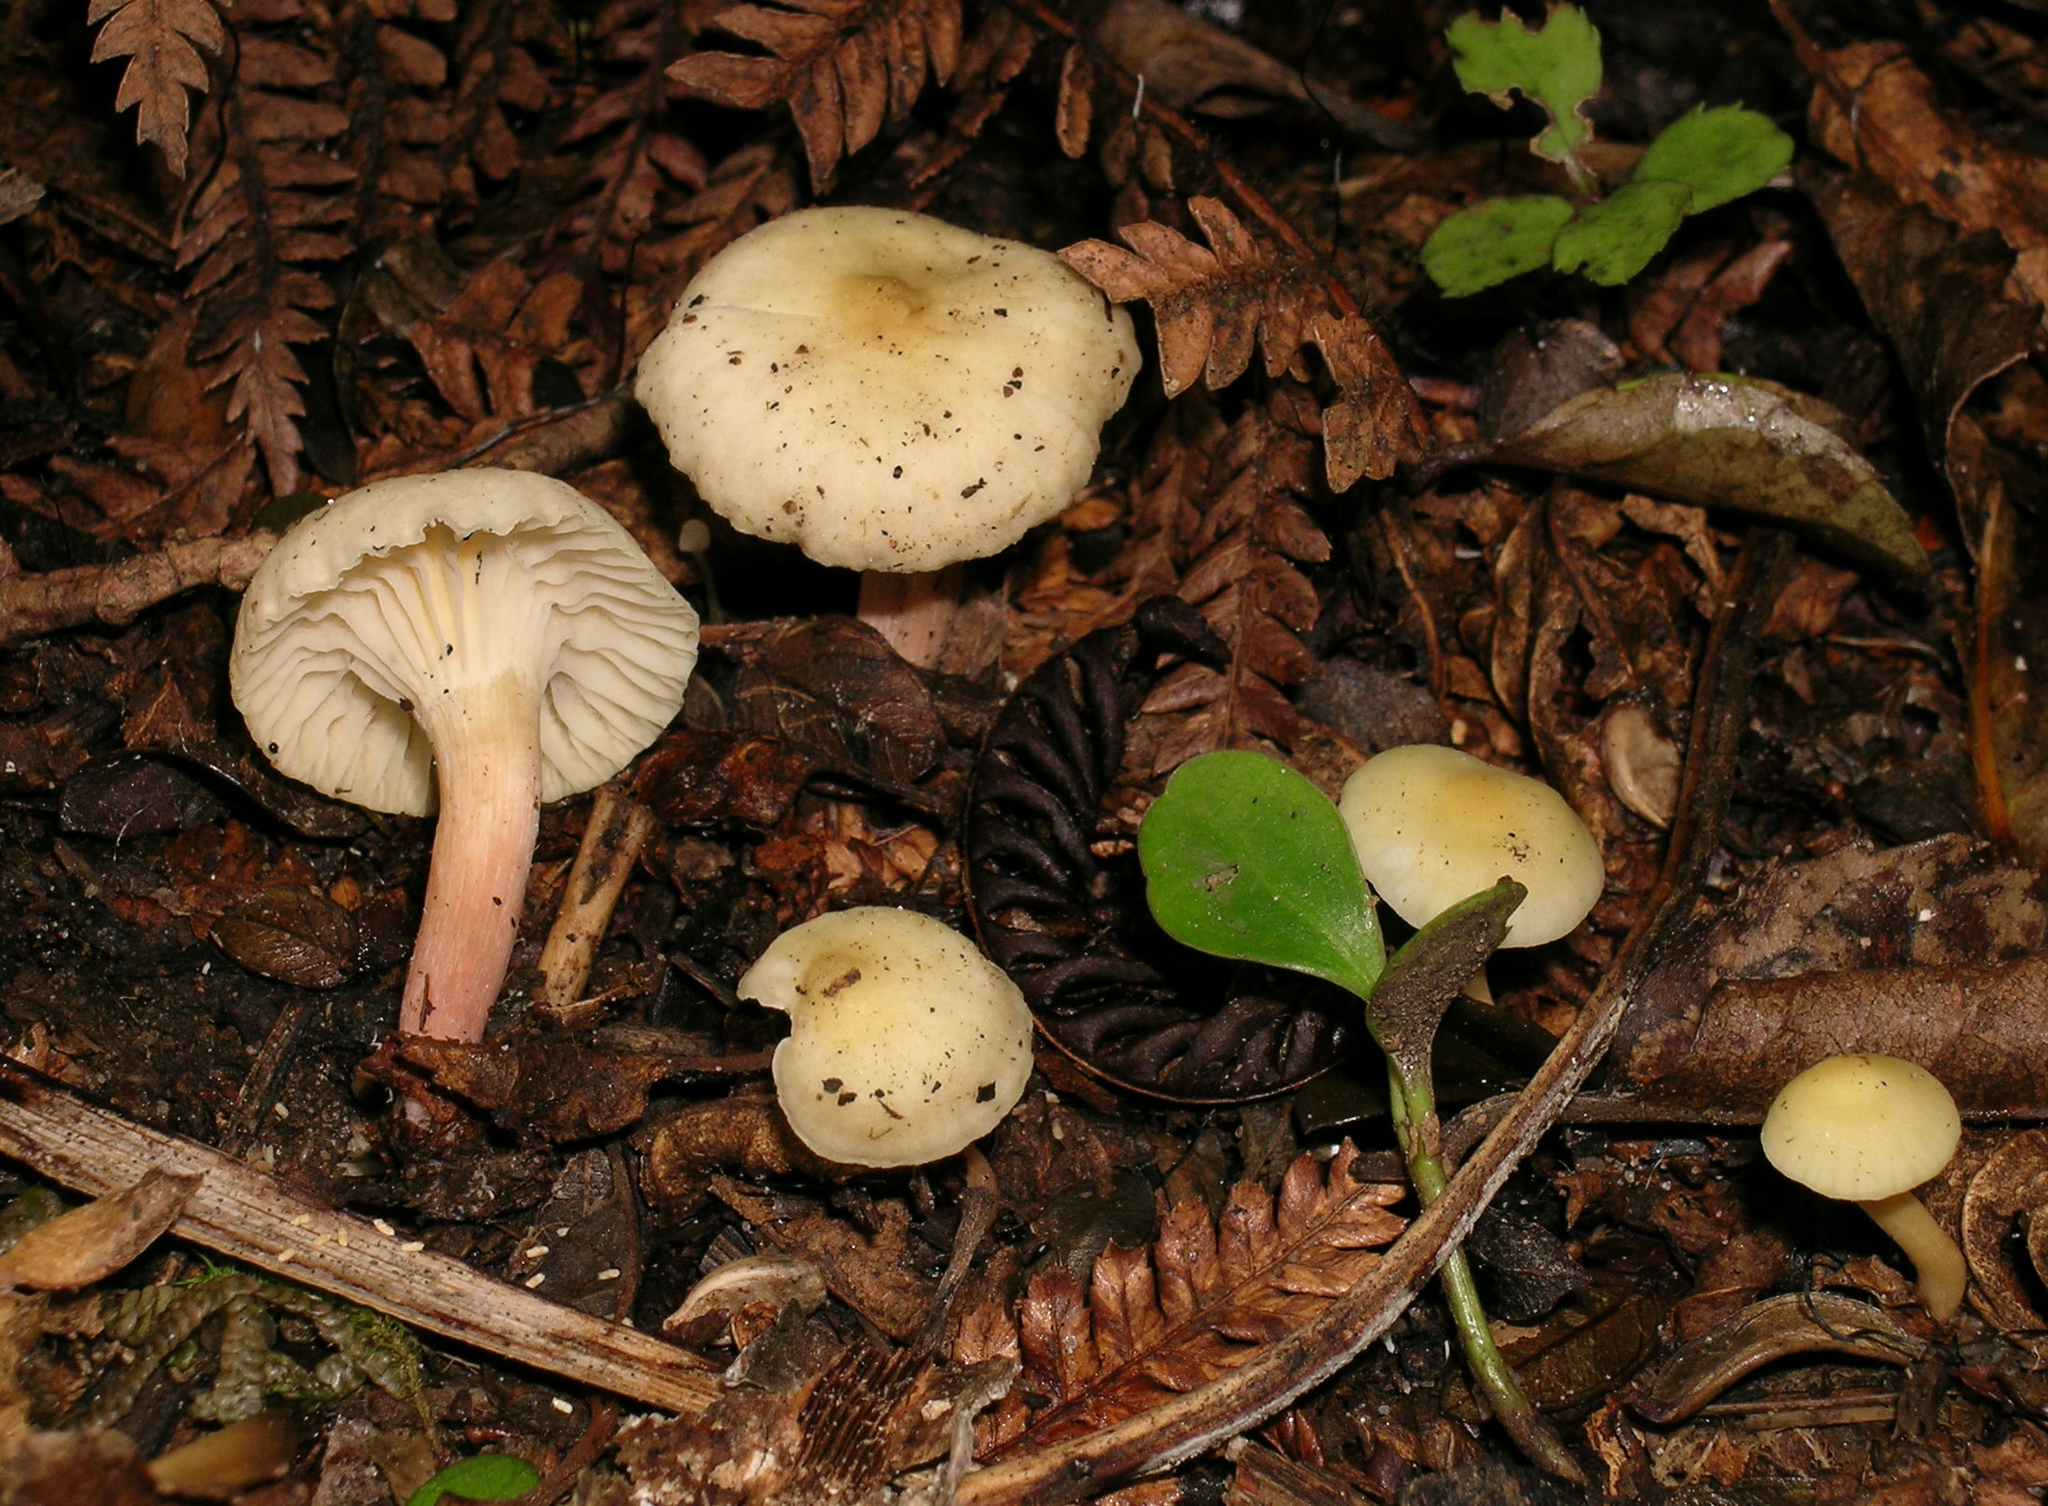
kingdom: Fungi
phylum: Basidiomycota
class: Agaricomycetes
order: Agaricales
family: Hygrophoraceae
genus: Cuphophyllus
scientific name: Cuphophyllus
